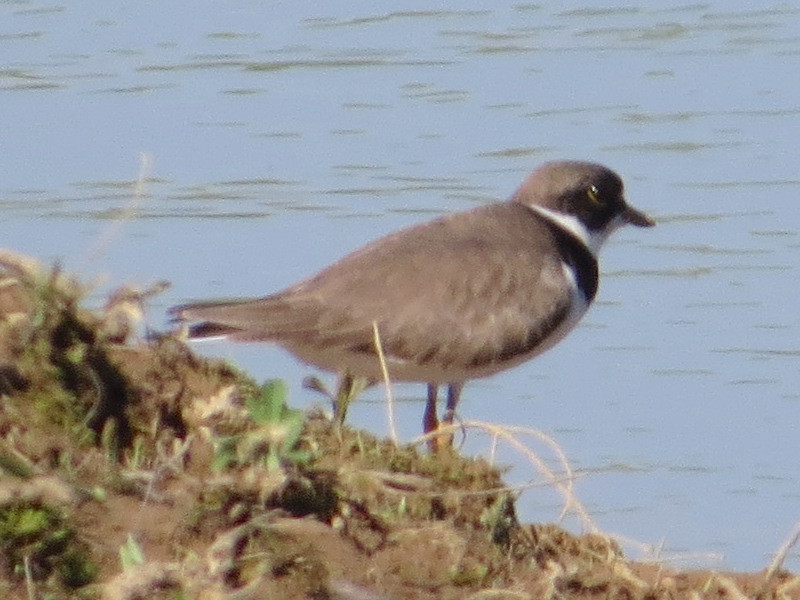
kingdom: Animalia
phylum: Chordata
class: Aves
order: Charadriiformes
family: Charadriidae
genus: Charadrius
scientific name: Charadrius semipalmatus
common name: Semipalmated plover
